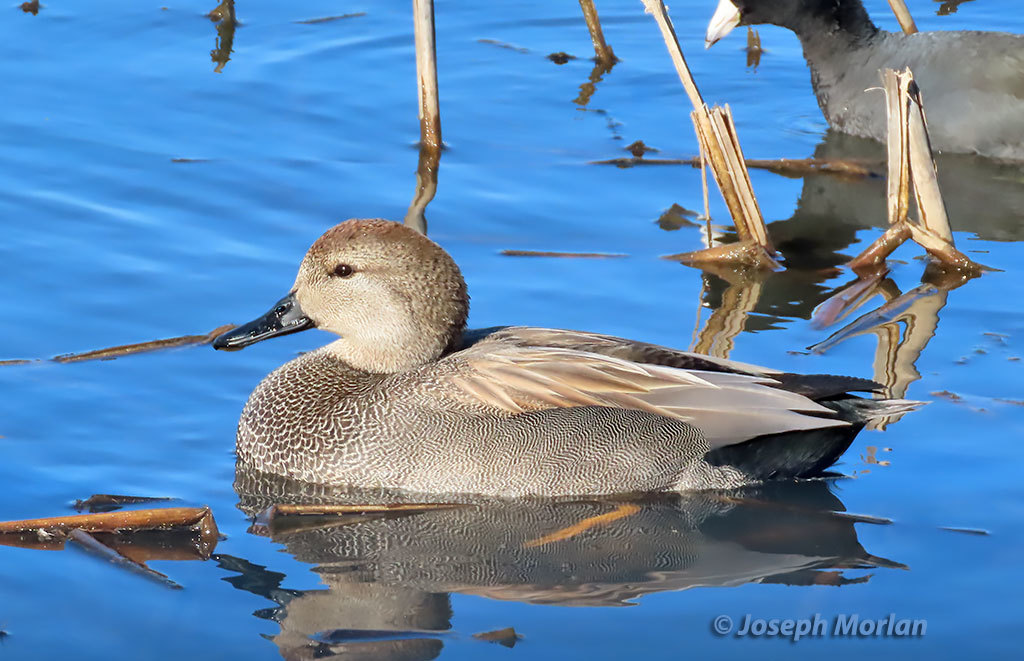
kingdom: Animalia
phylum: Chordata
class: Aves
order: Anseriformes
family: Anatidae
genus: Mareca
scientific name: Mareca strepera
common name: Gadwall
